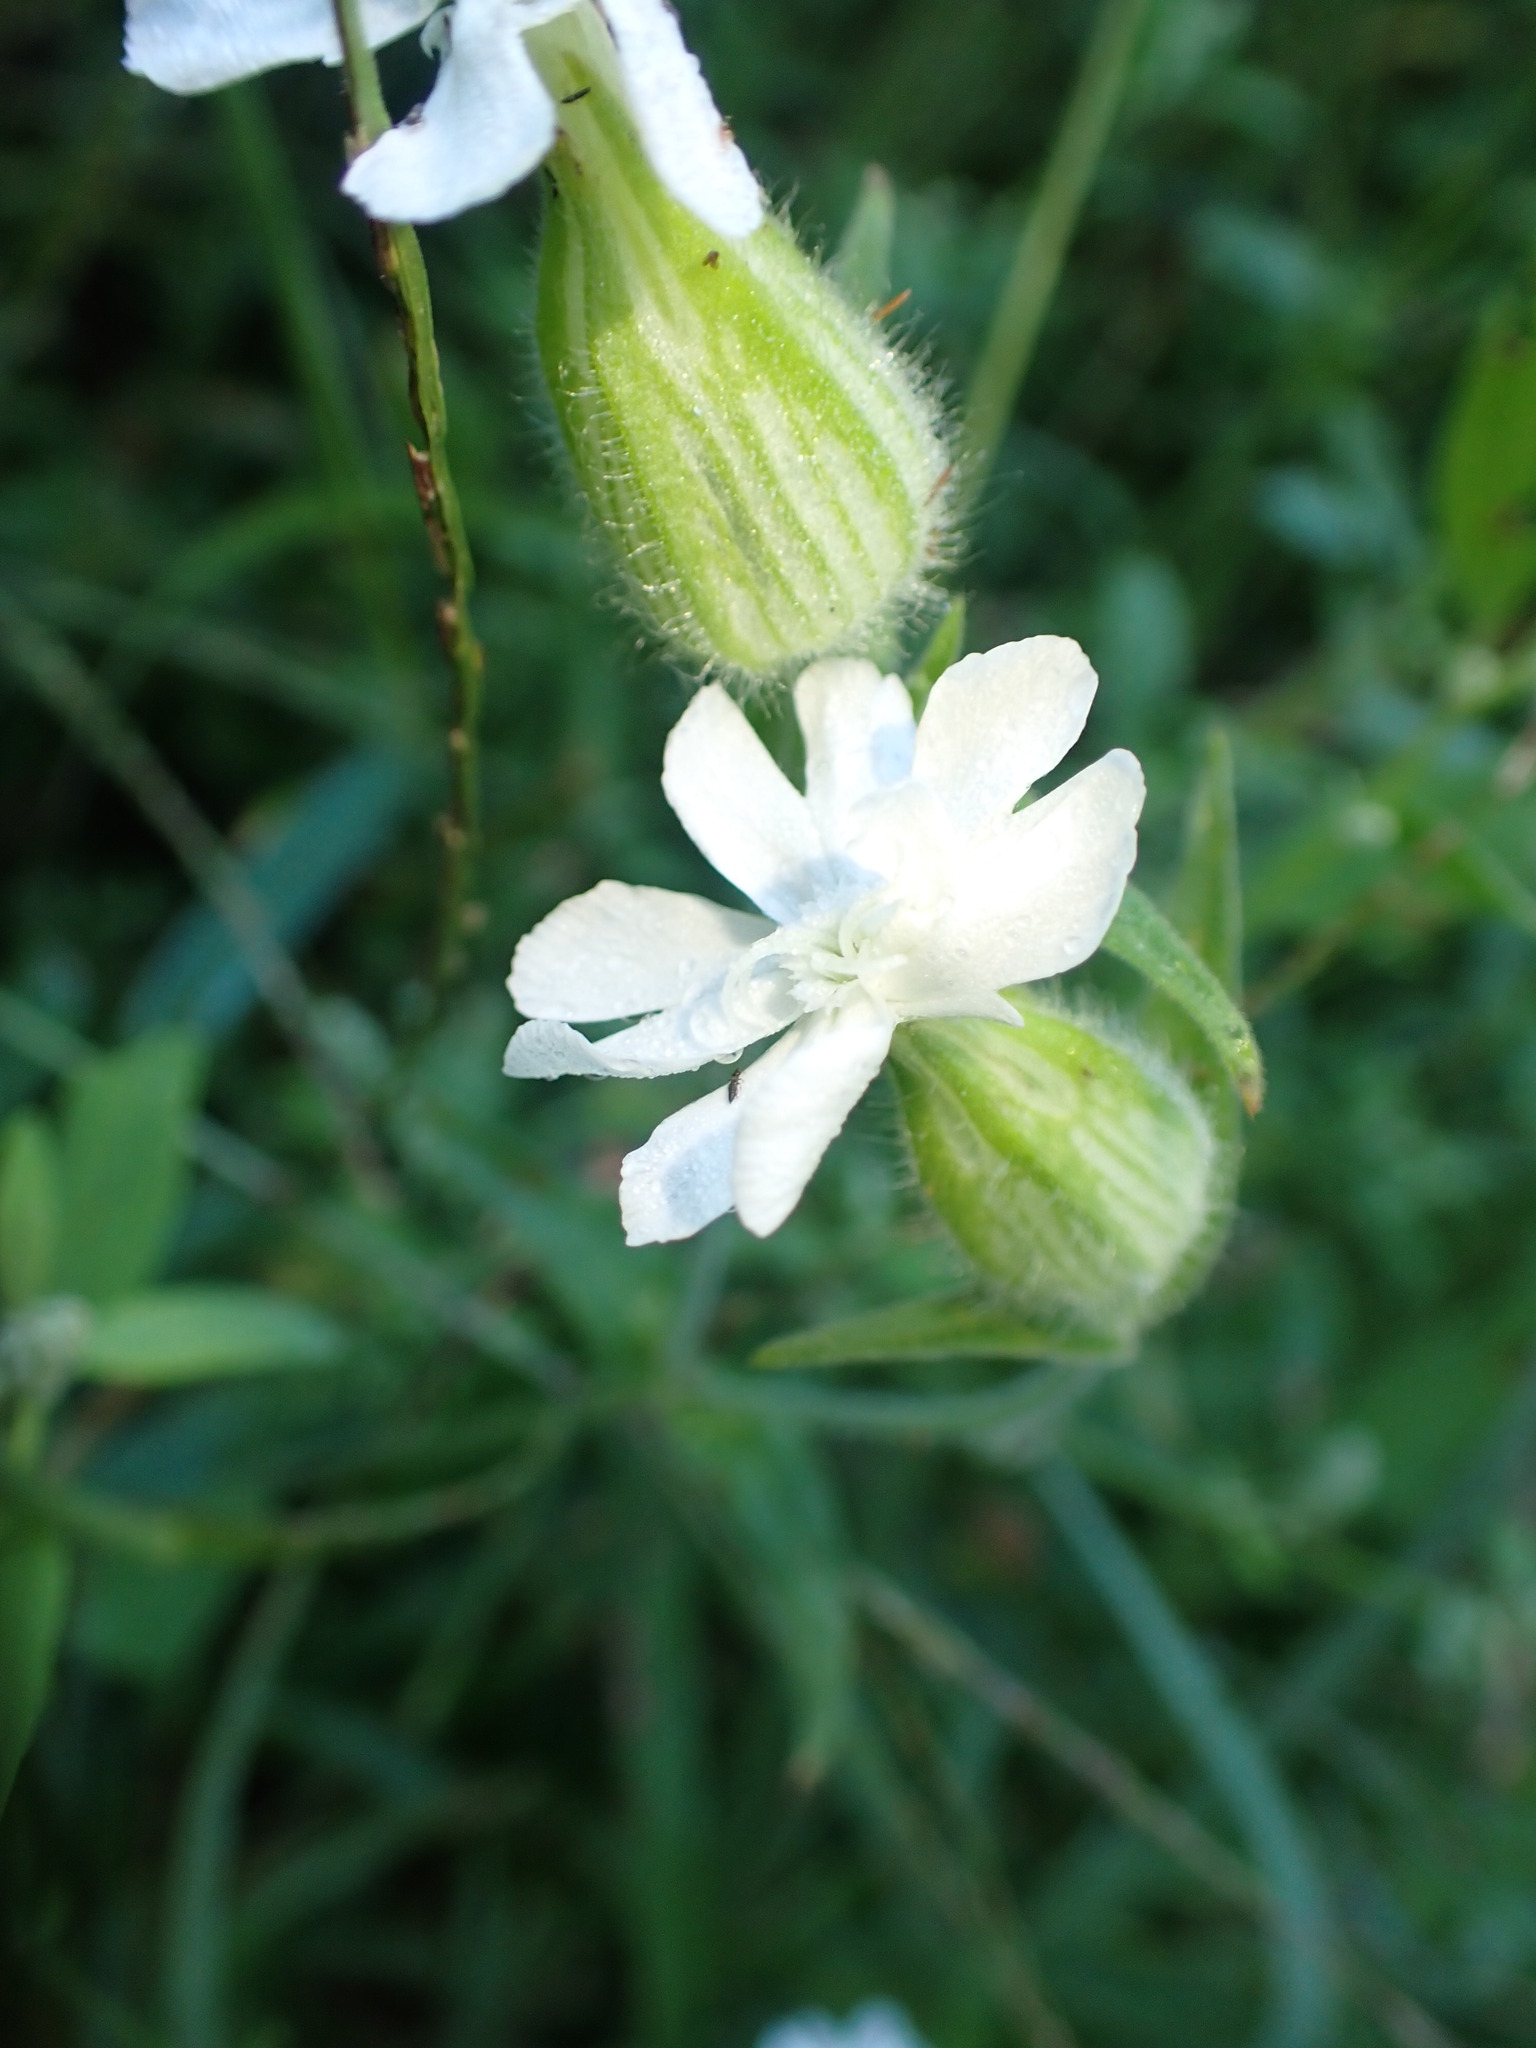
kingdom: Plantae
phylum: Tracheophyta
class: Magnoliopsida
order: Caryophyllales
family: Caryophyllaceae
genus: Silene
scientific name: Silene latifolia
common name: White campion
